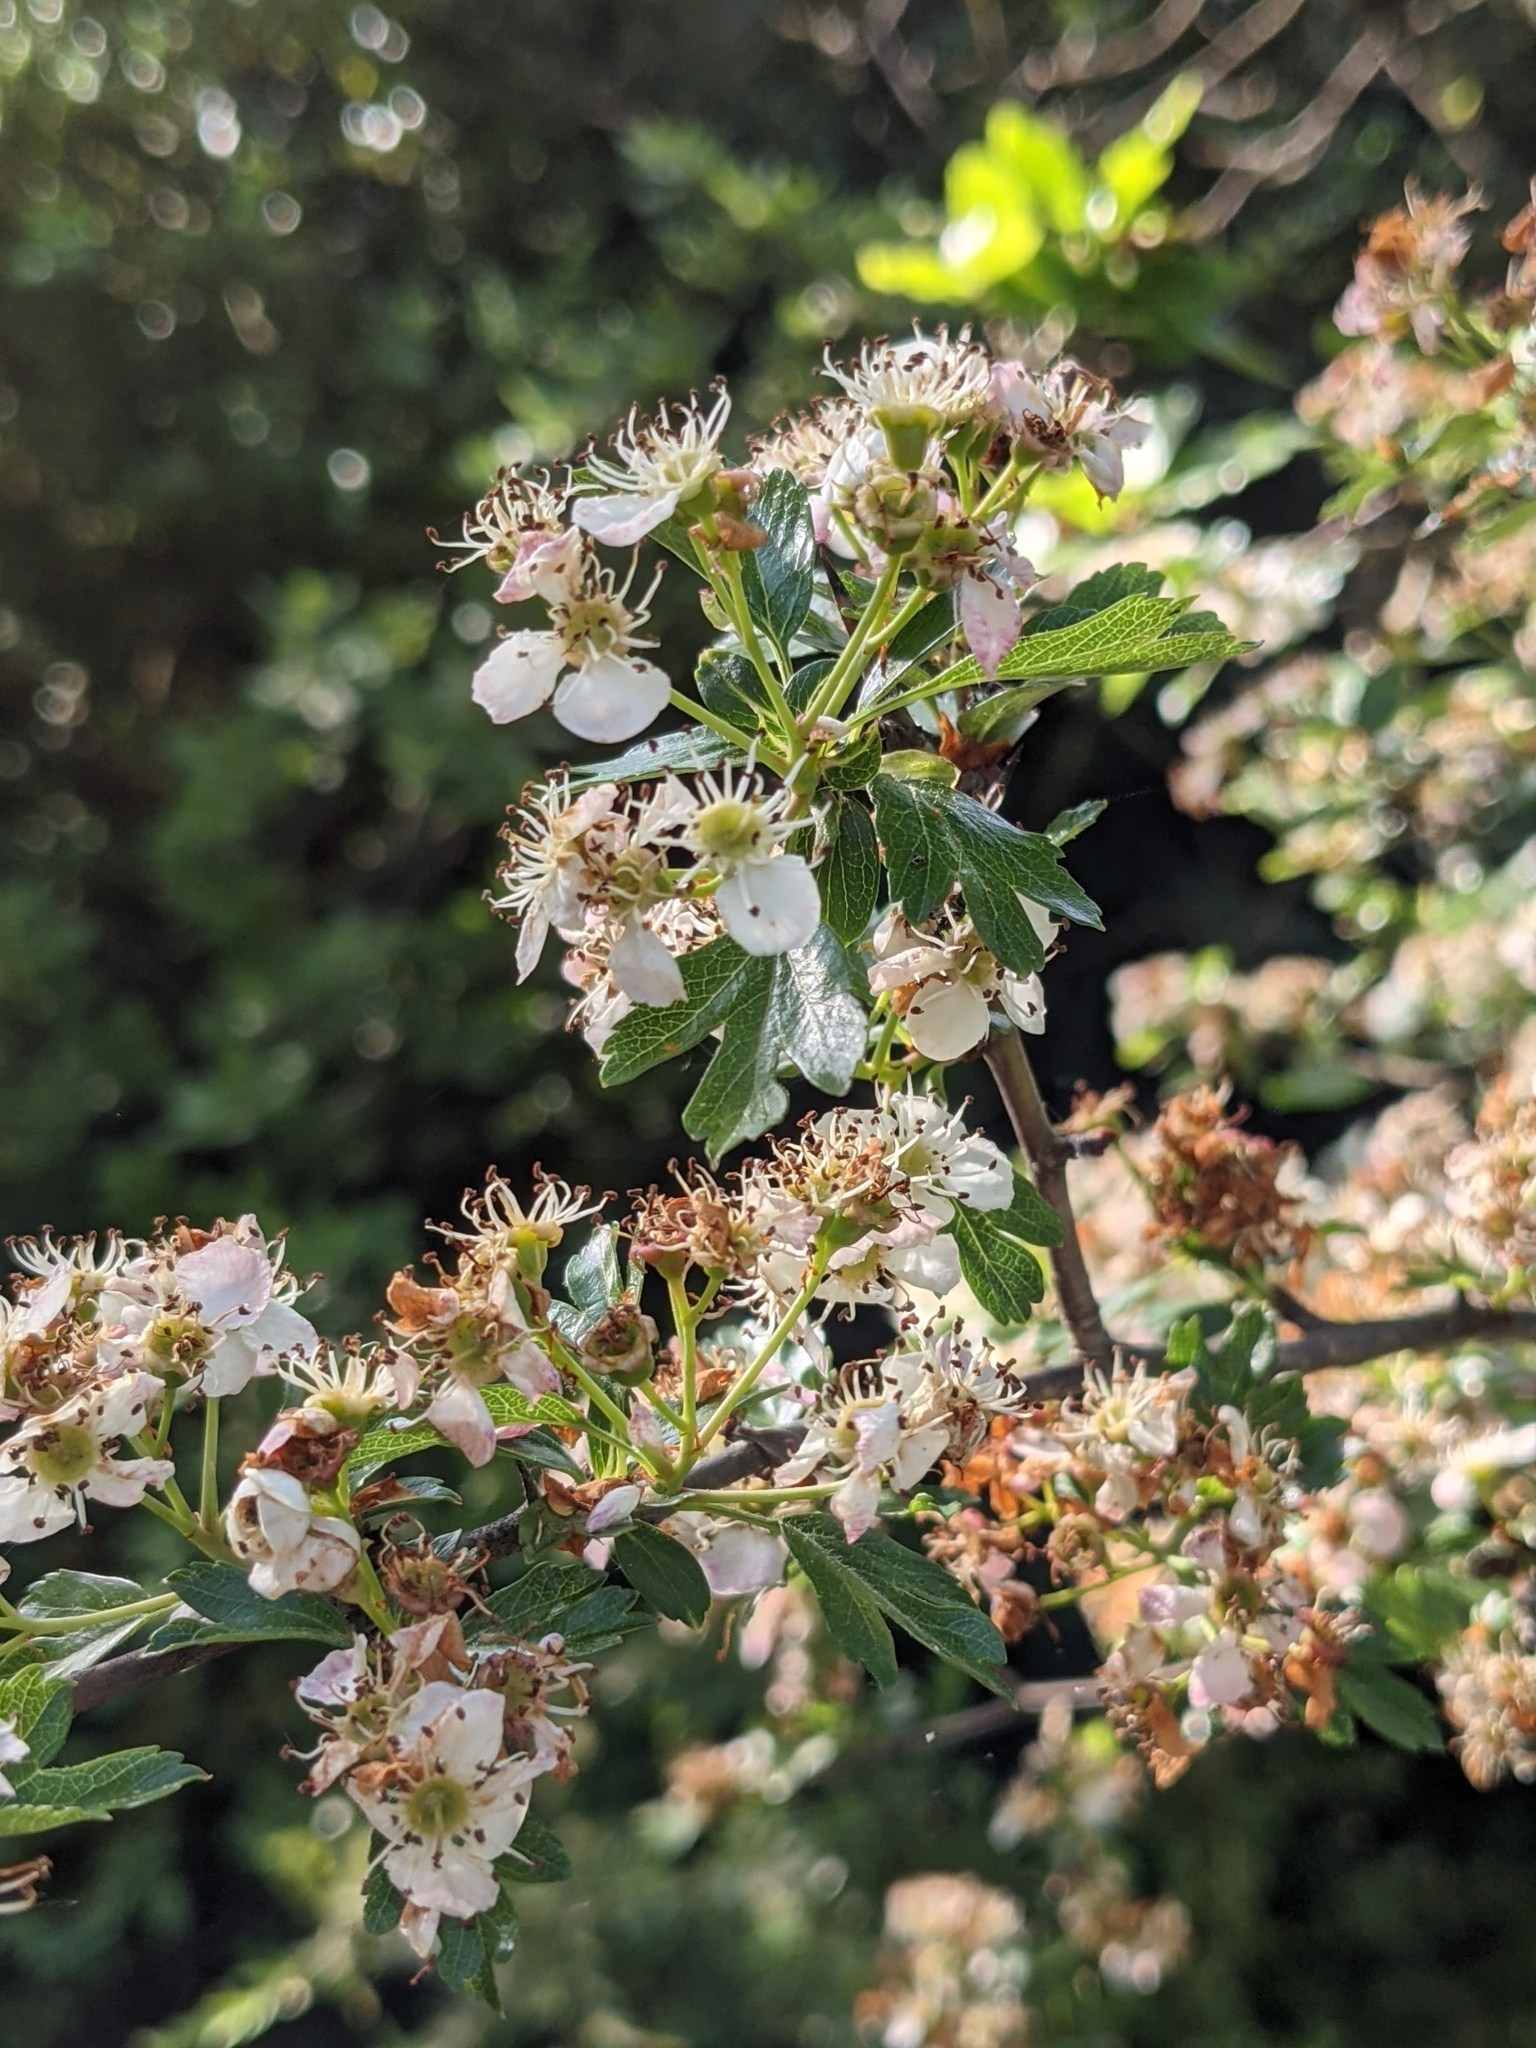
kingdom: Plantae
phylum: Tracheophyta
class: Magnoliopsida
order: Rosales
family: Rosaceae
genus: Crataegus
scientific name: Crataegus monogyna
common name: Hawthorn
